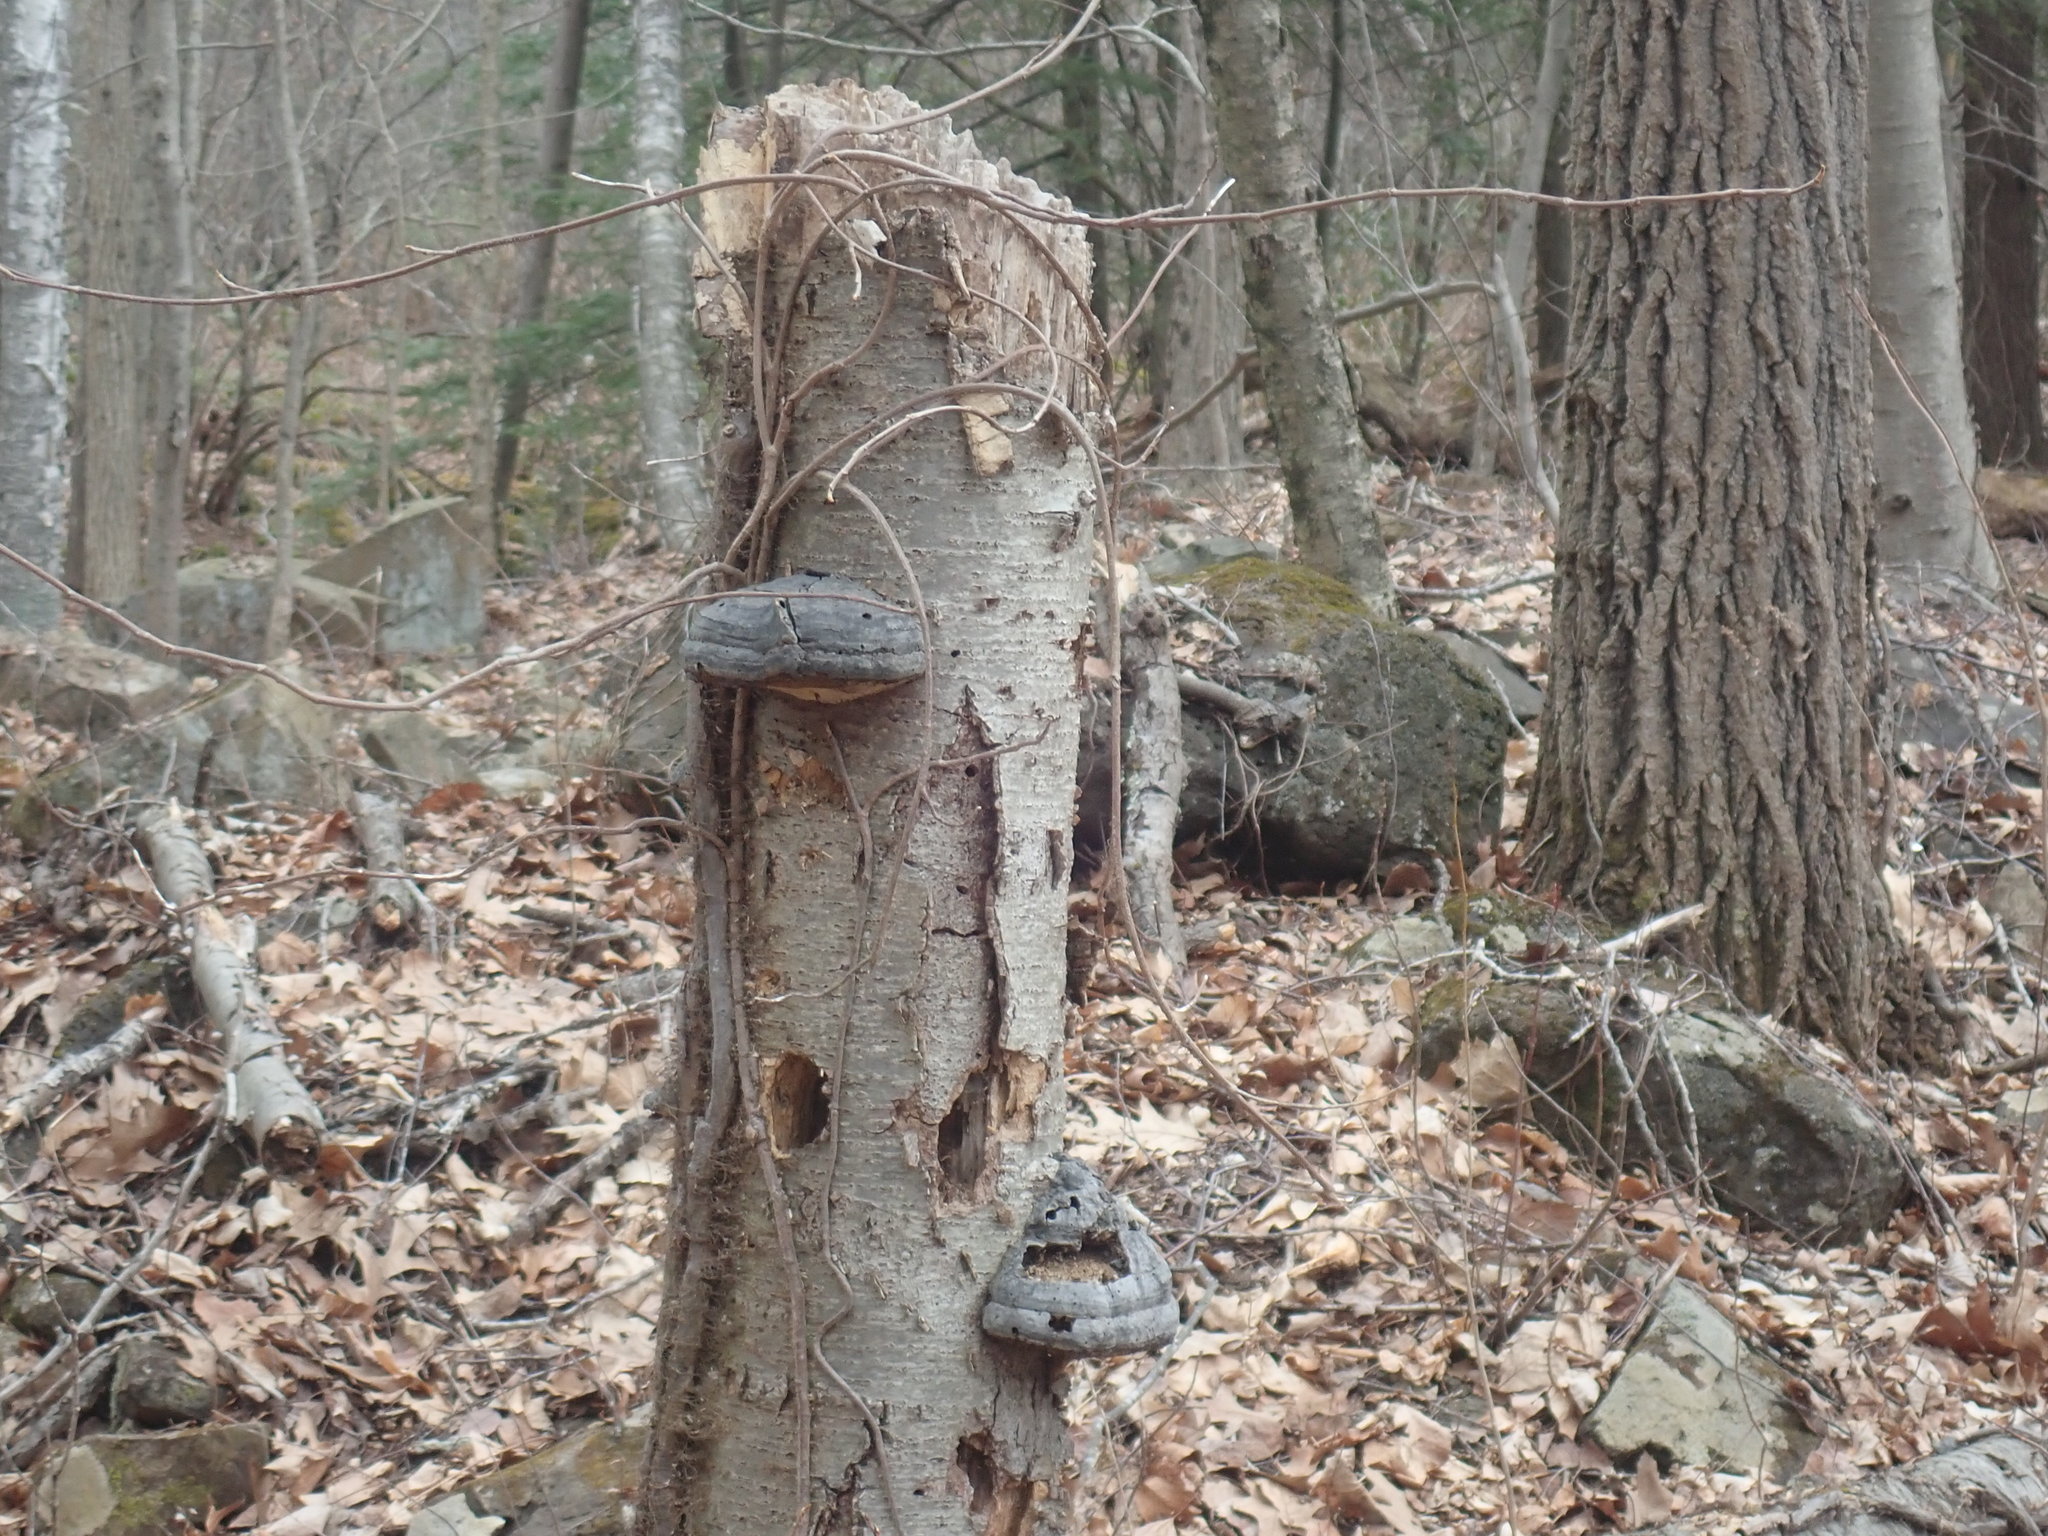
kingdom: Fungi
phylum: Basidiomycota
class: Agaricomycetes
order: Polyporales
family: Polyporaceae
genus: Fomes
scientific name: Fomes fomentarius
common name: Hoof fungus
